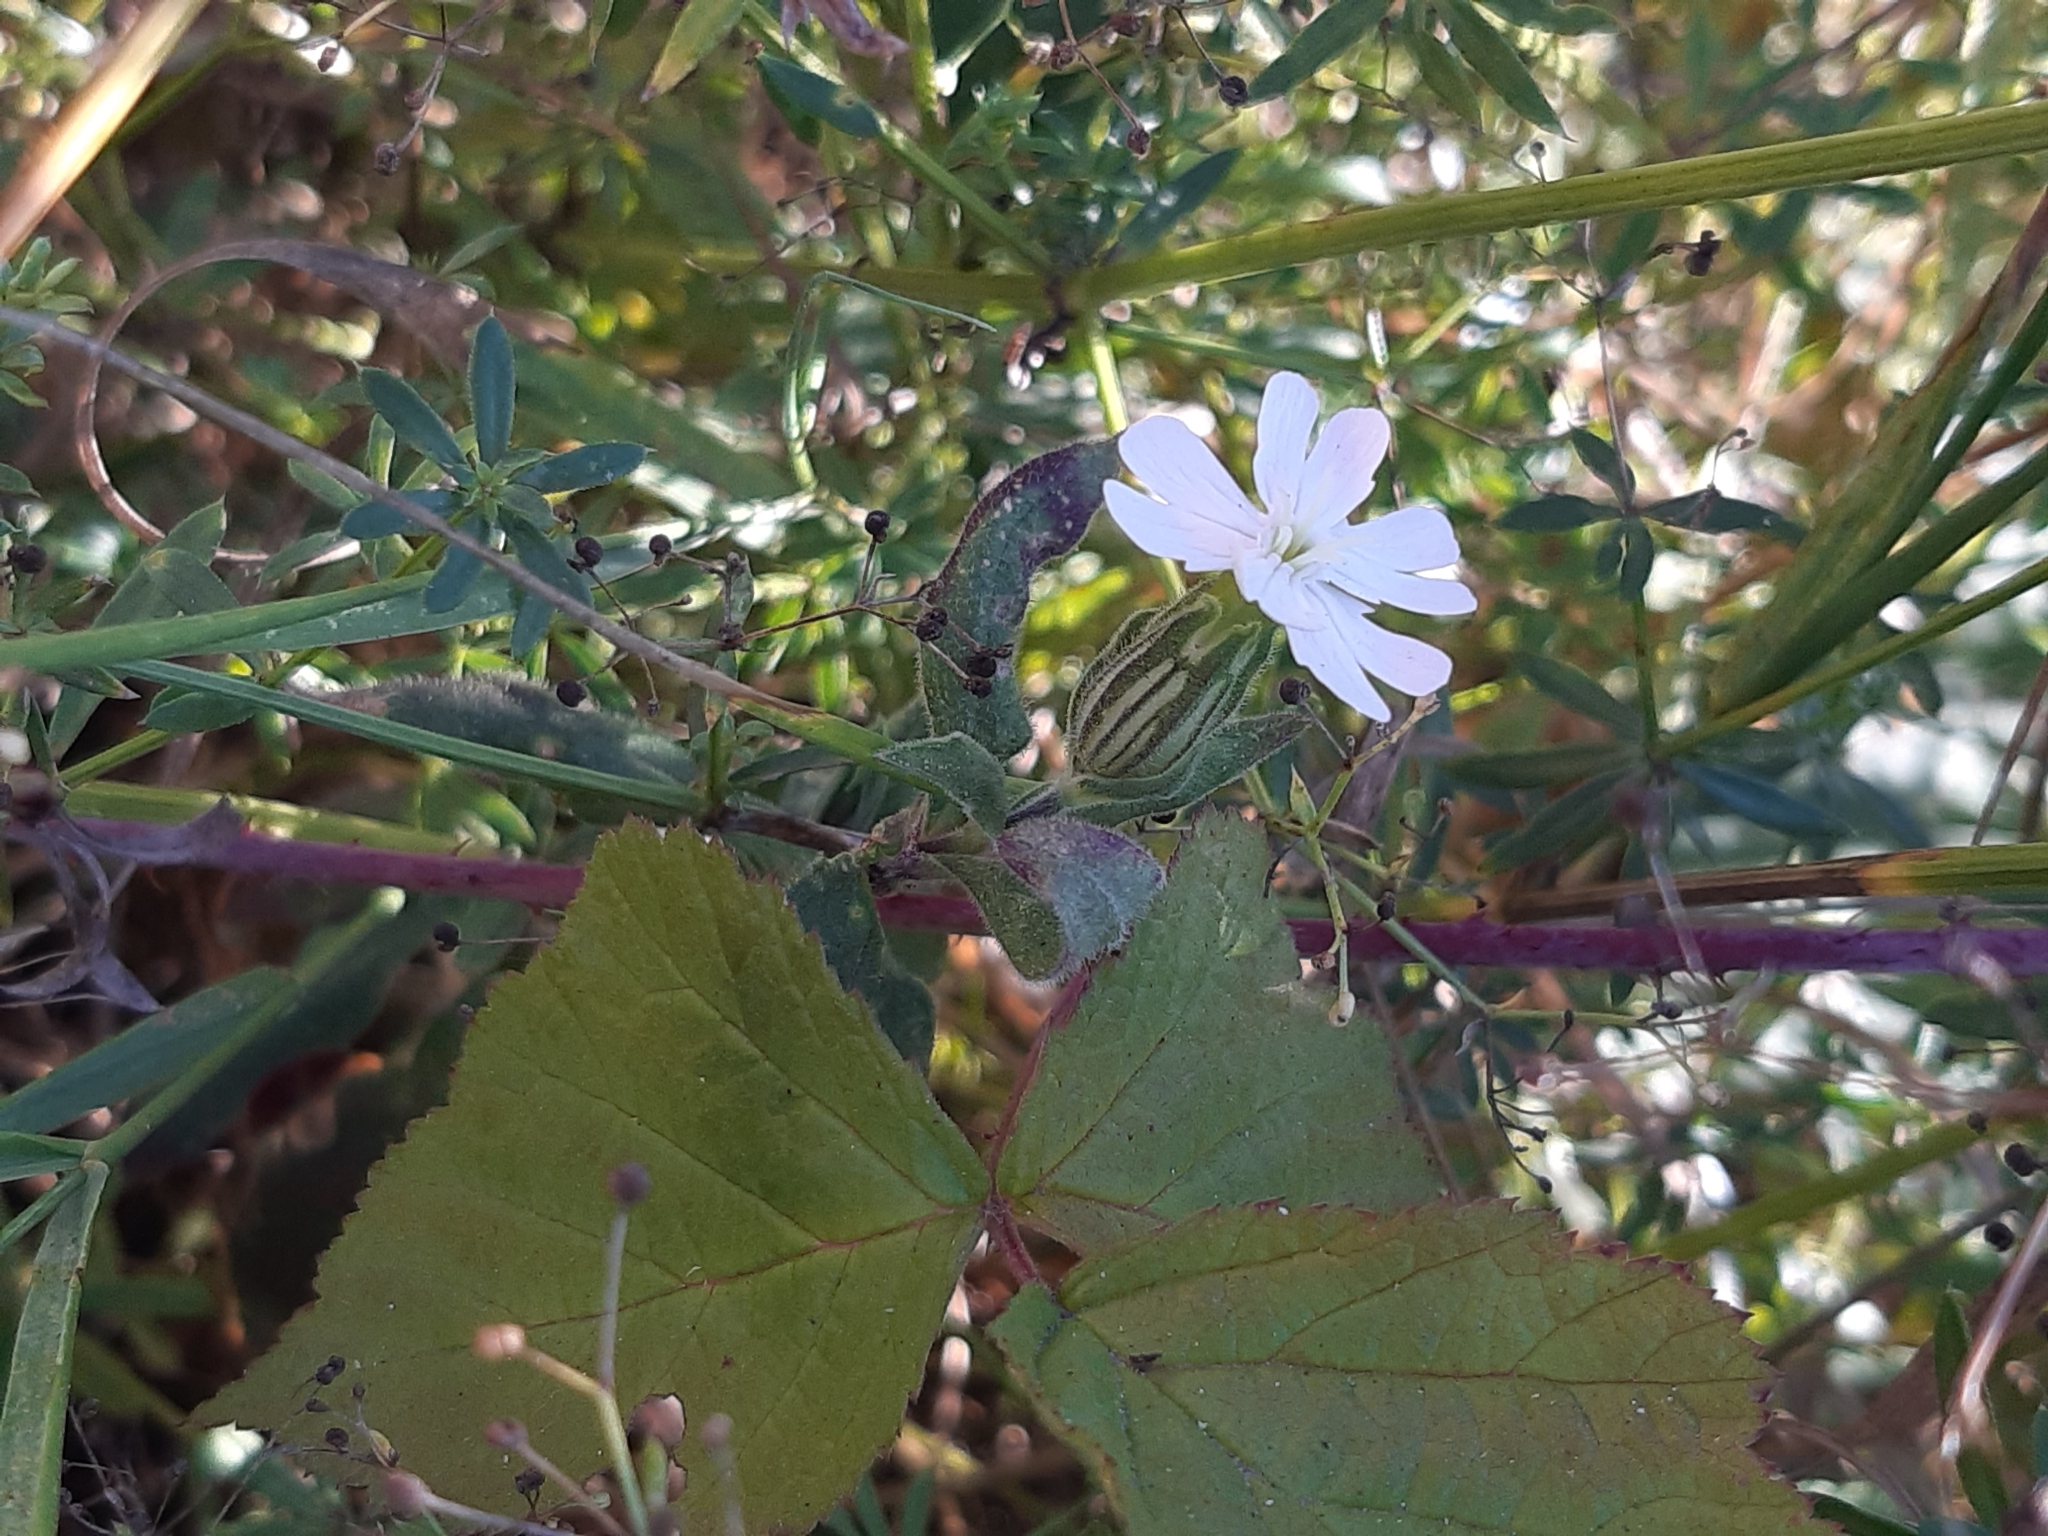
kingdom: Plantae
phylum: Tracheophyta
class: Magnoliopsida
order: Caryophyllales
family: Caryophyllaceae
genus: Silene
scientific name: Silene latifolia
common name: White campion
